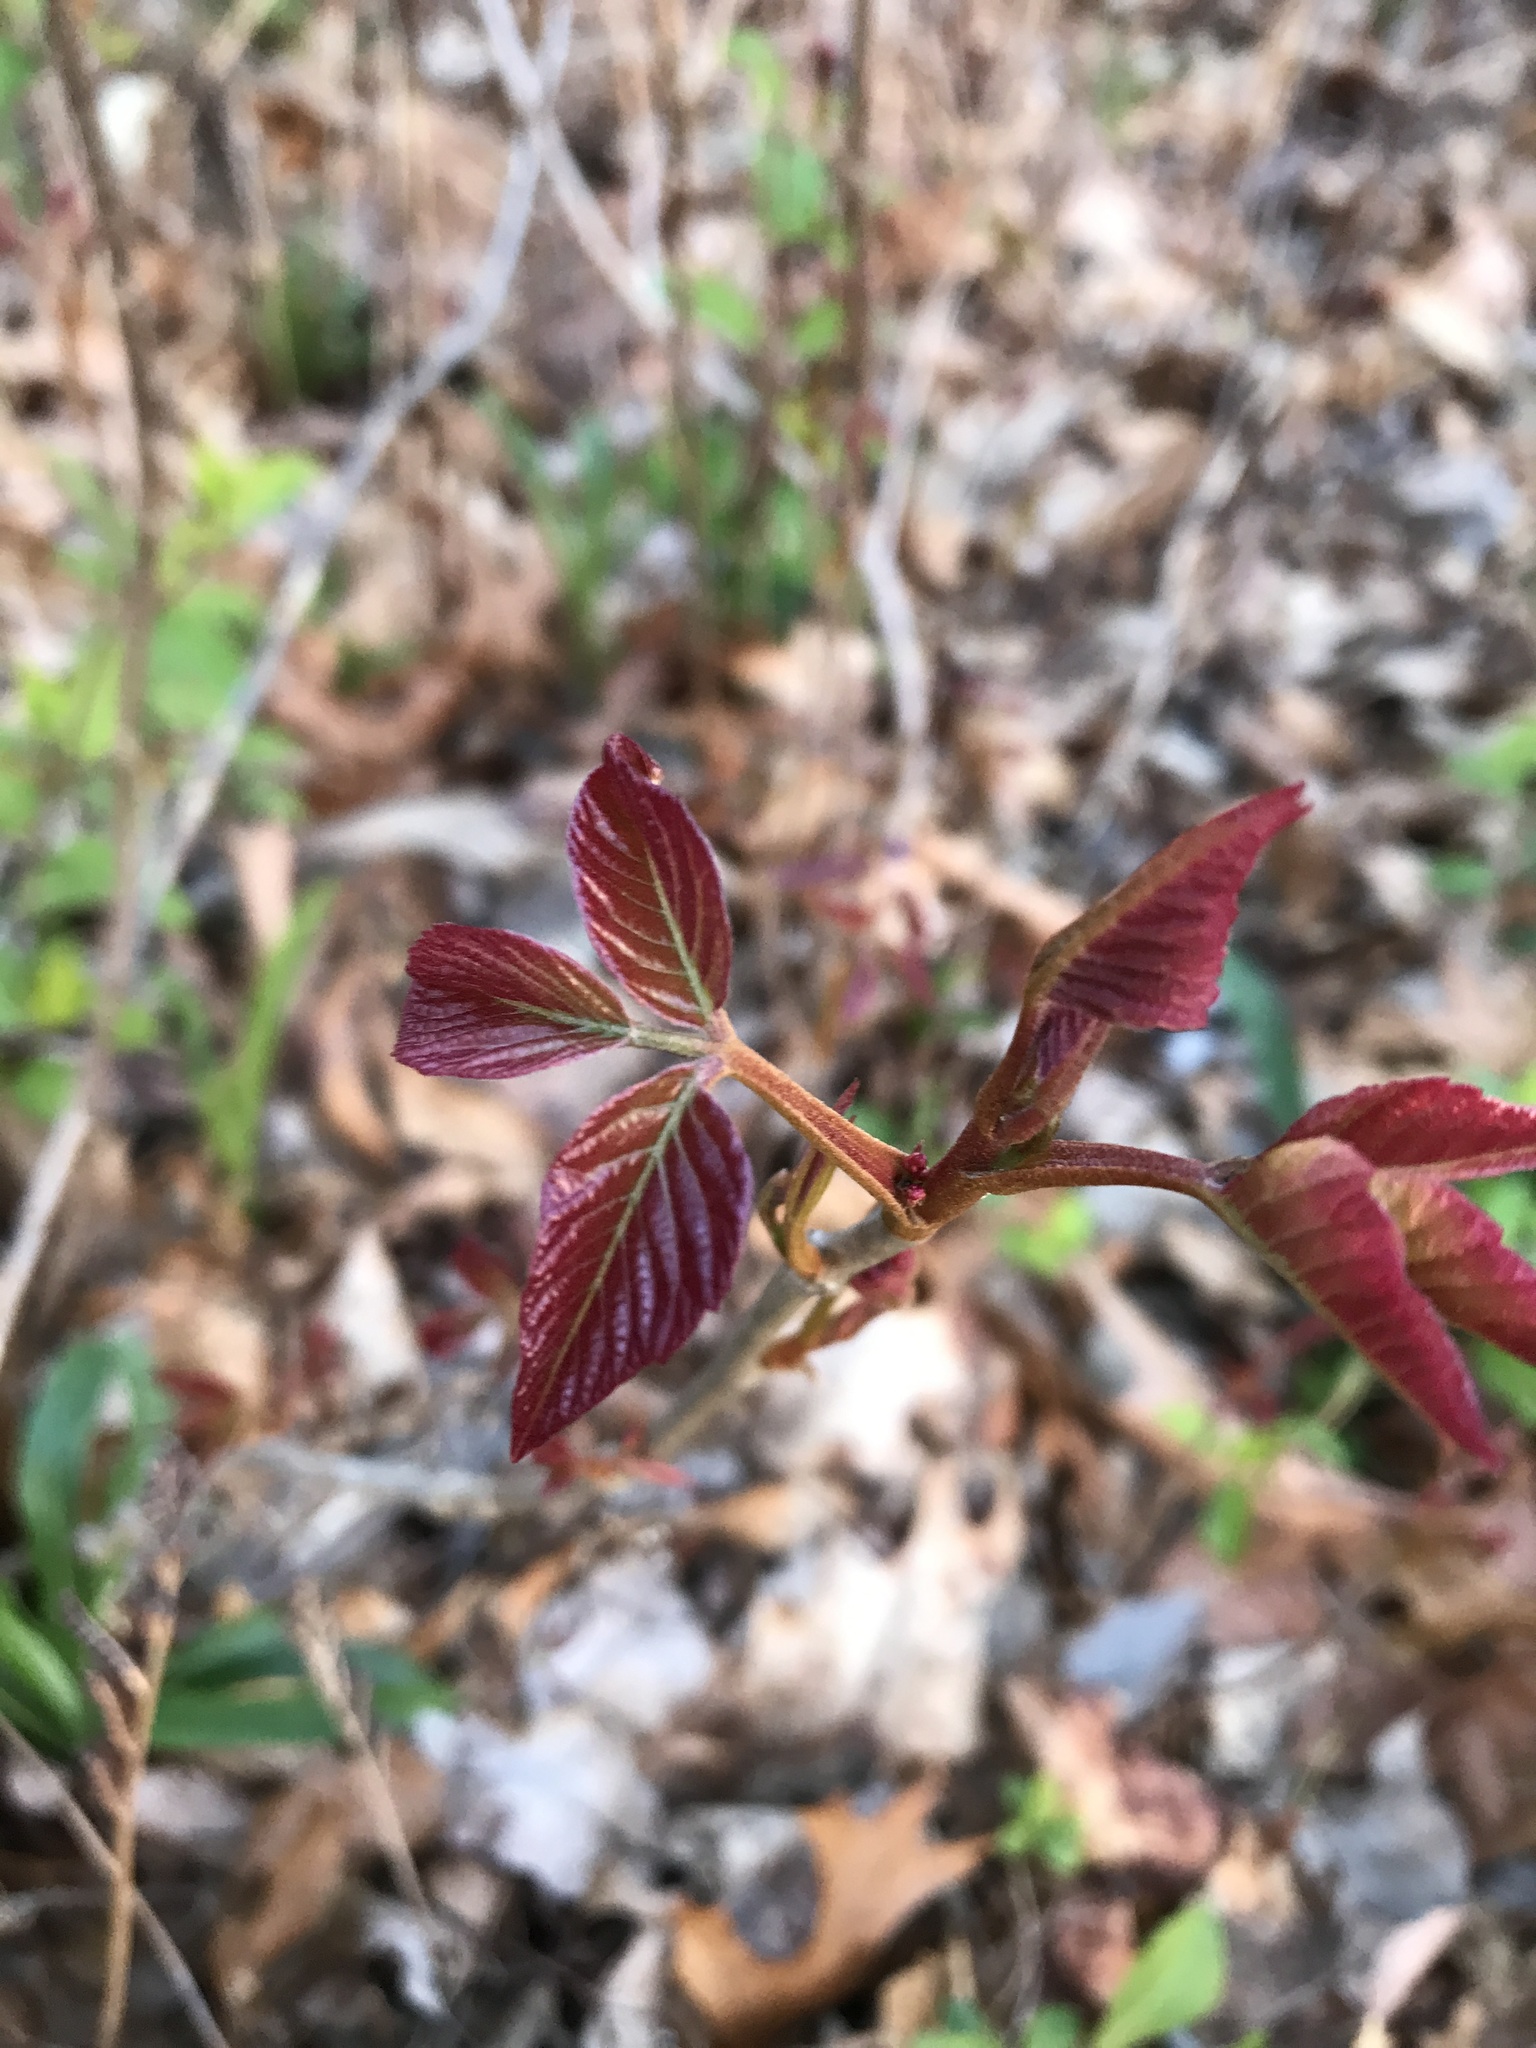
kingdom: Plantae
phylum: Tracheophyta
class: Magnoliopsida
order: Sapindales
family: Anacardiaceae
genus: Toxicodendron
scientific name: Toxicodendron radicans
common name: Poison ivy
